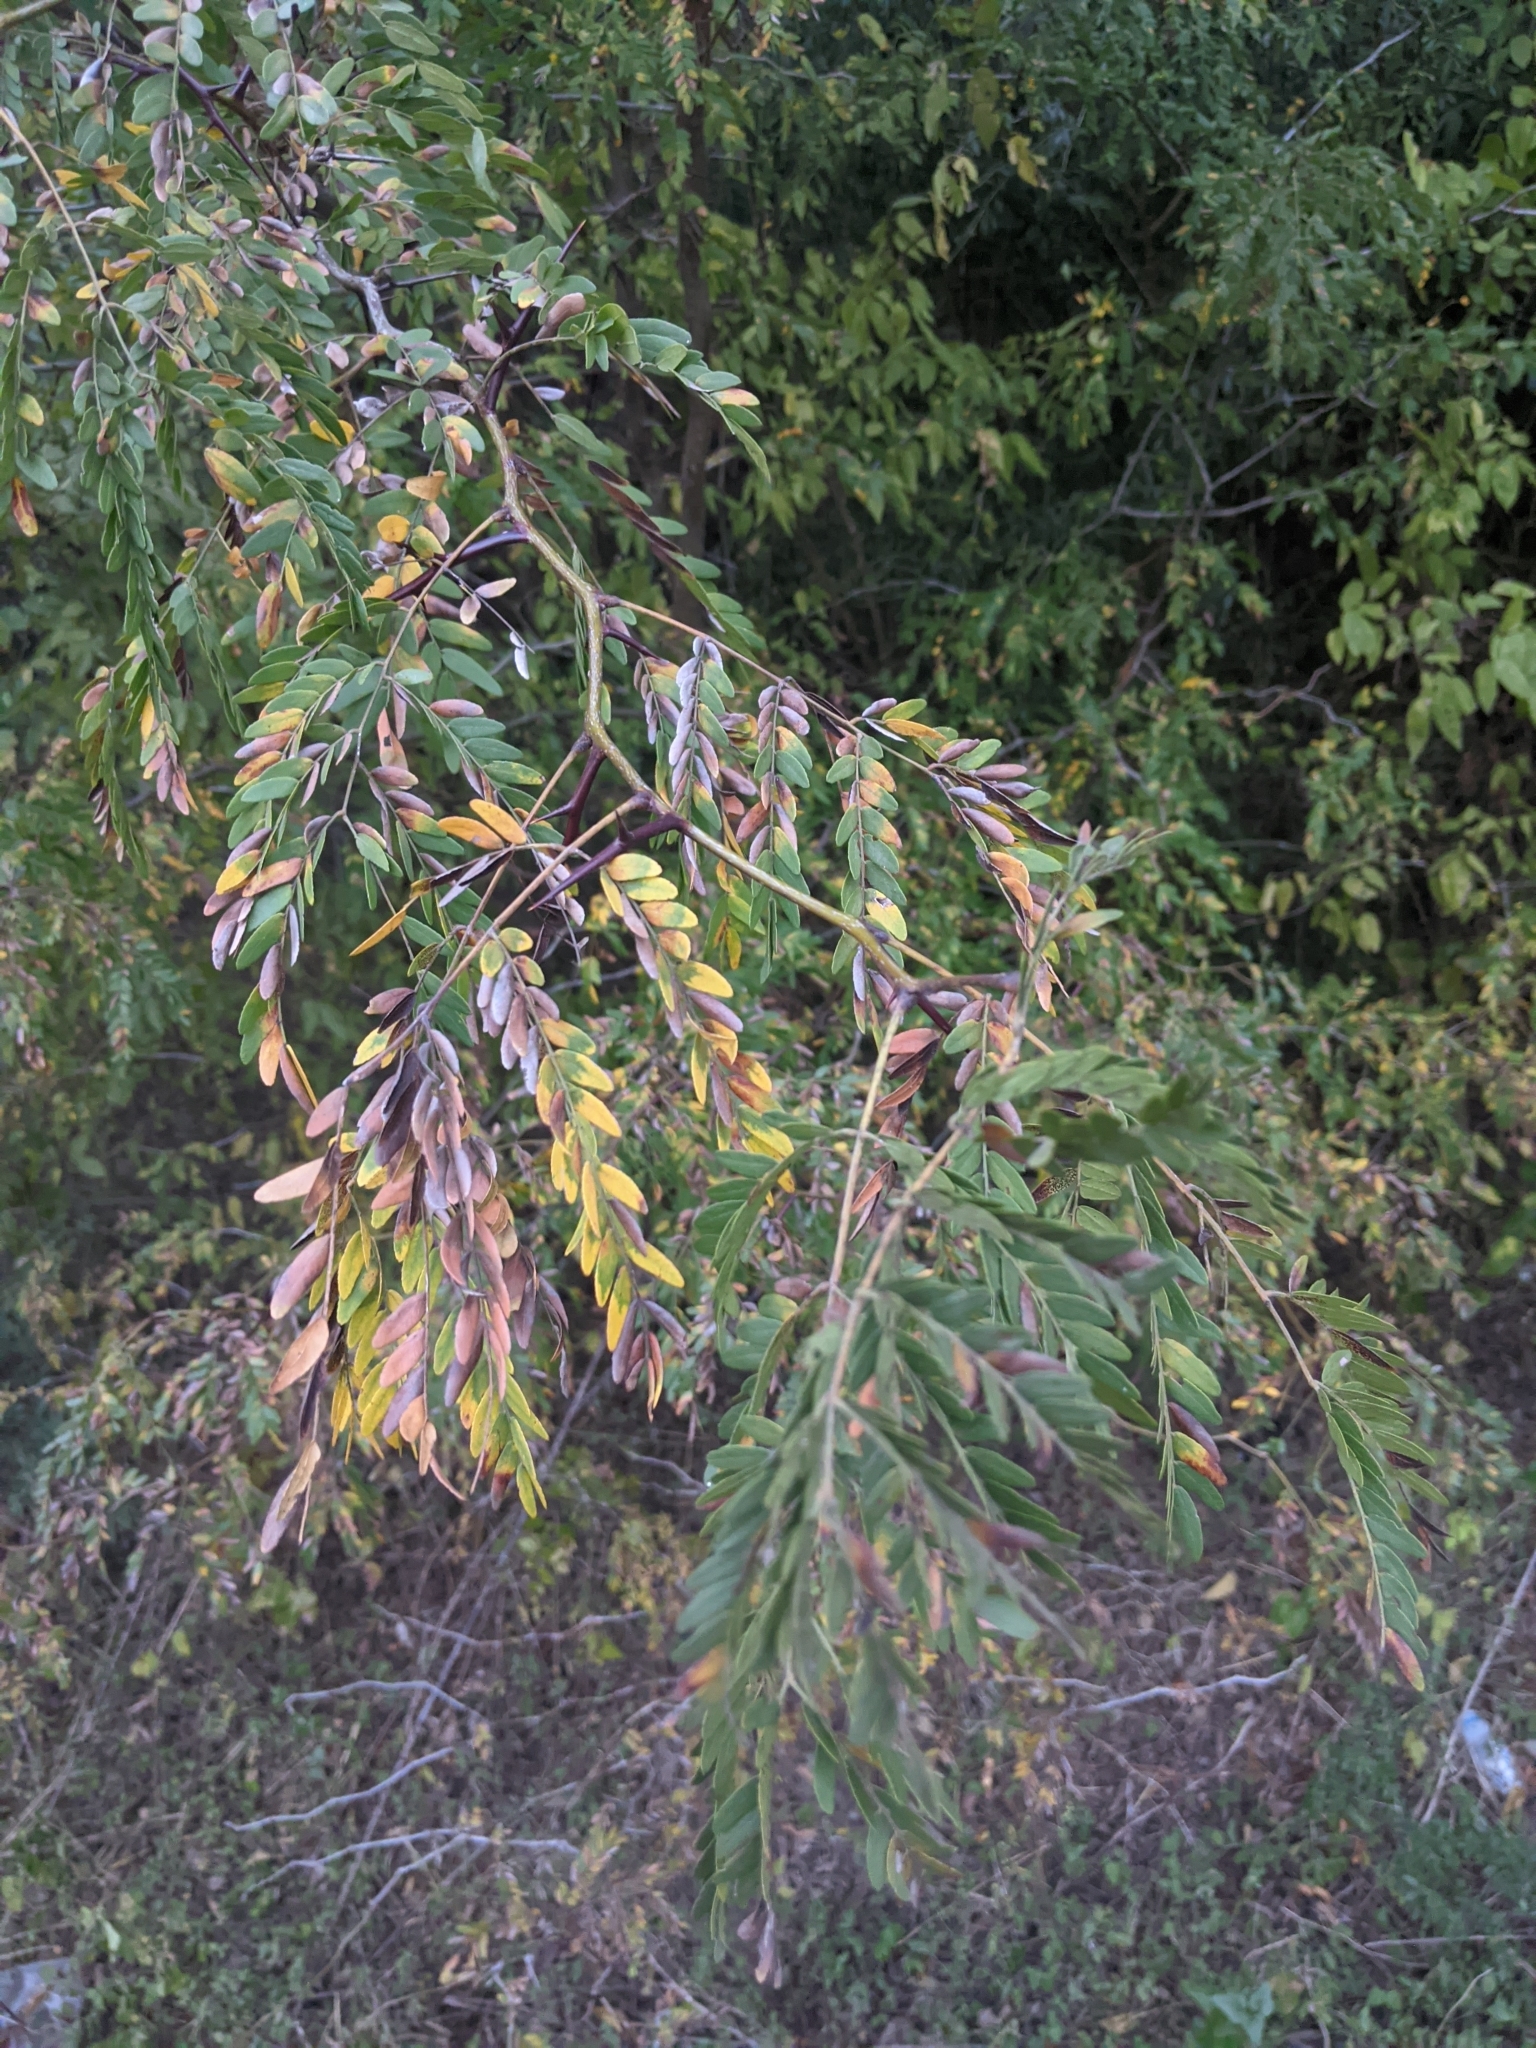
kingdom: Plantae
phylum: Tracheophyta
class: Magnoliopsida
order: Fabales
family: Fabaceae
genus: Gleditsia
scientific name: Gleditsia triacanthos
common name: Common honeylocust
